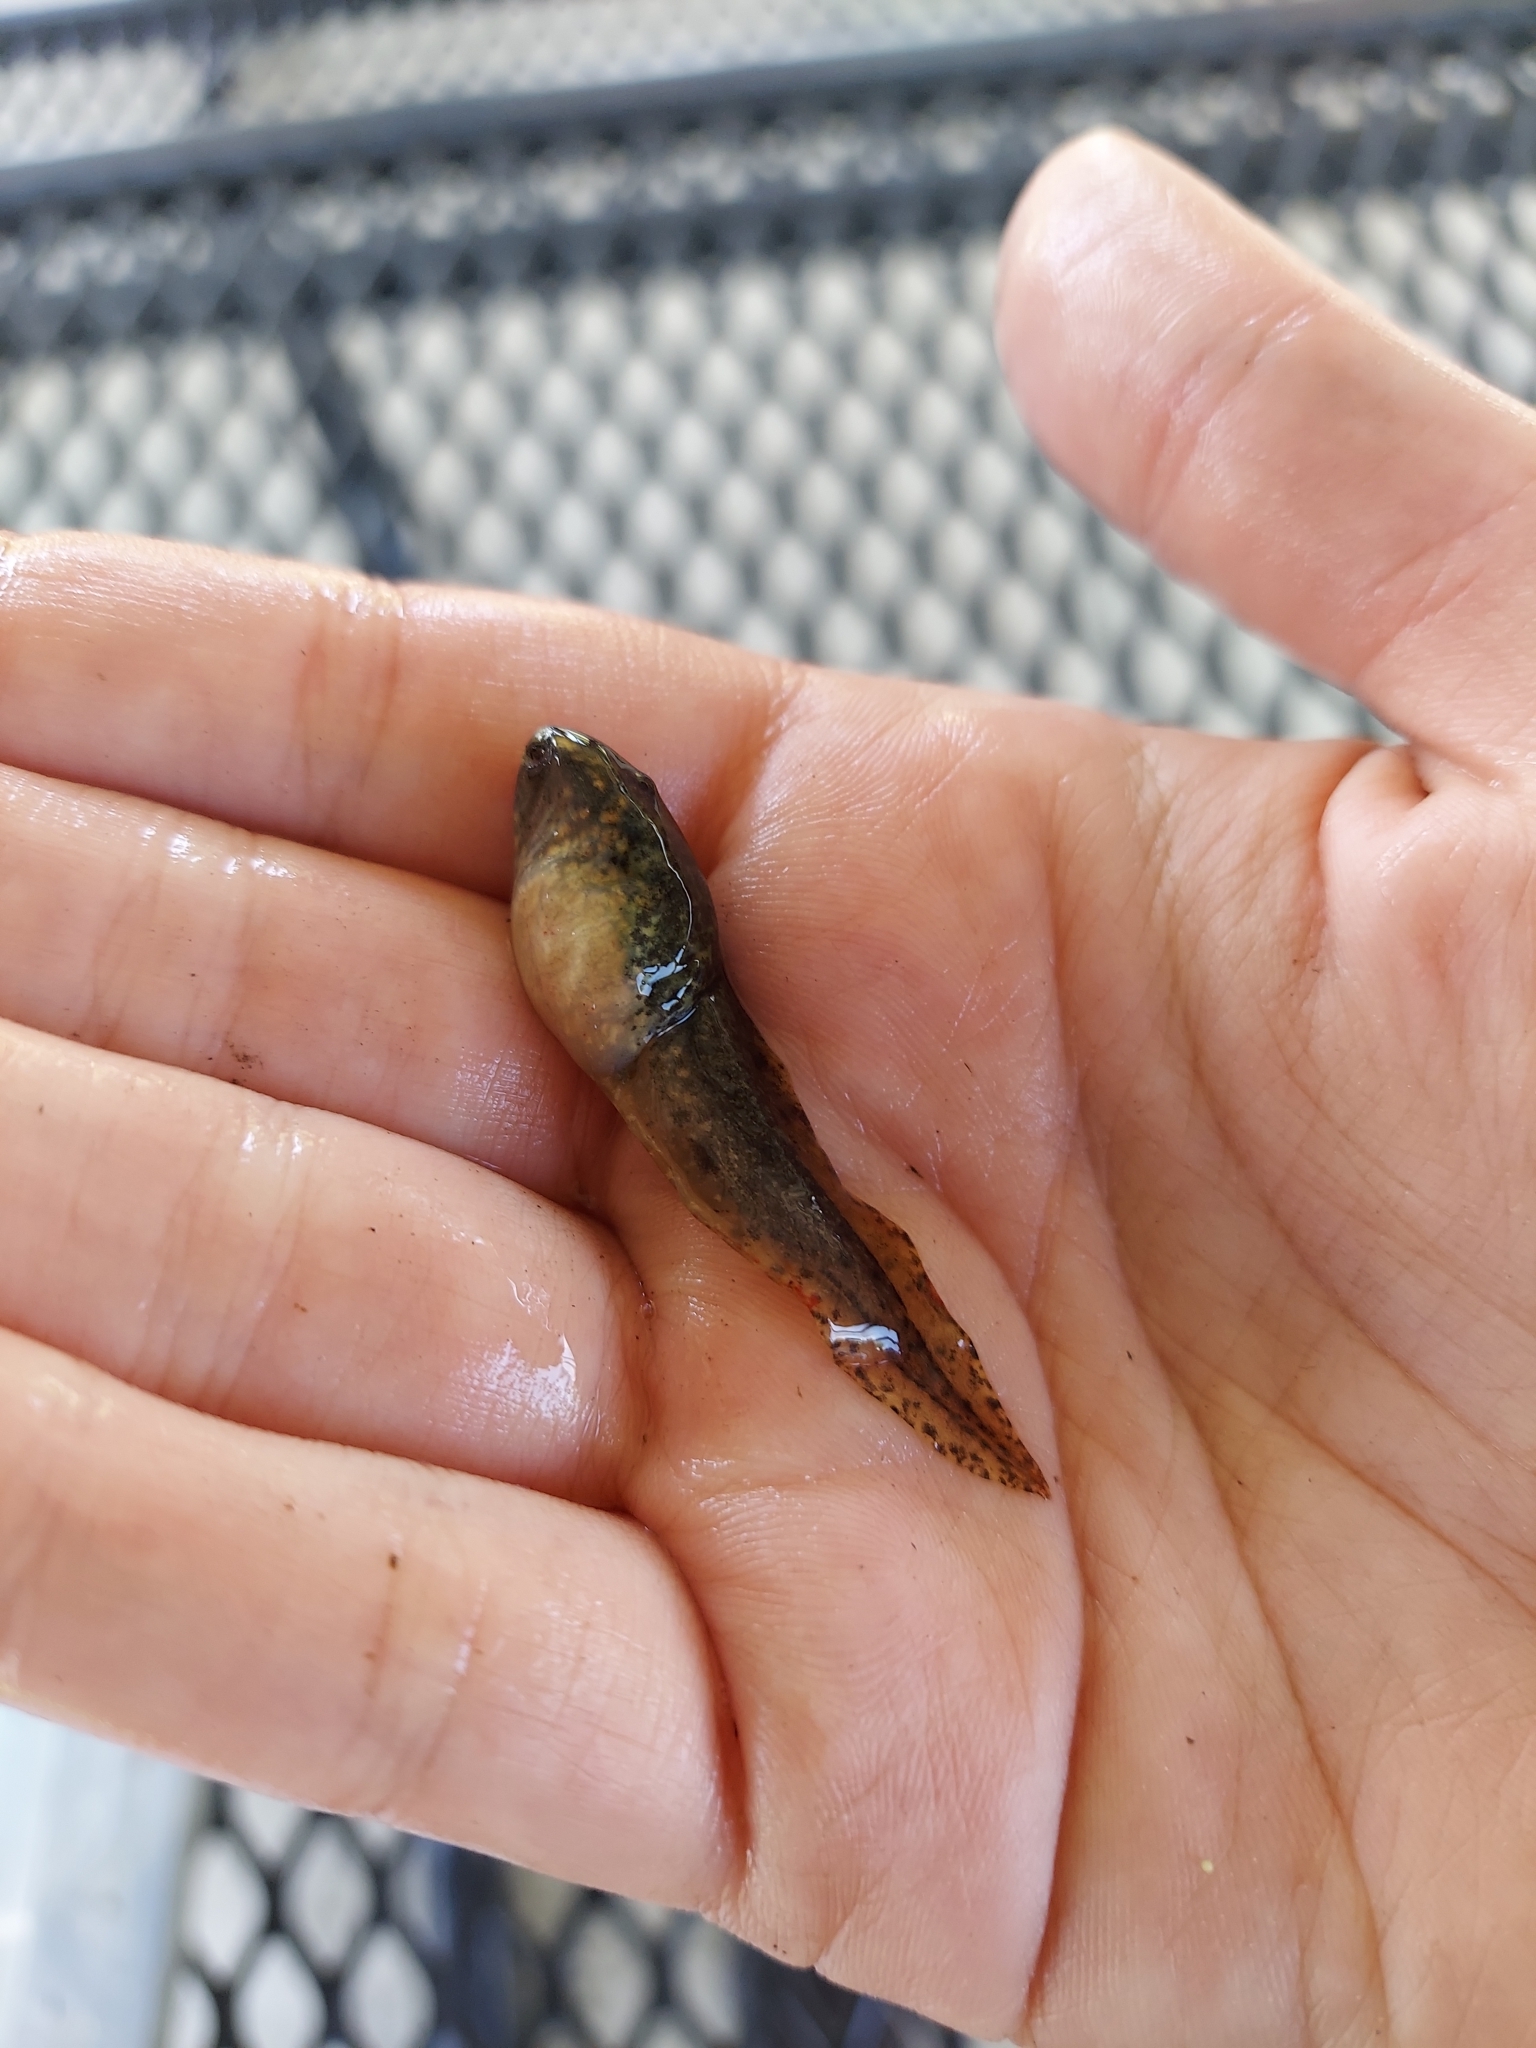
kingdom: Animalia
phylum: Chordata
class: Amphibia
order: Anura
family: Ranidae
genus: Lithobates
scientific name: Lithobates clamitans
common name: Green frog
